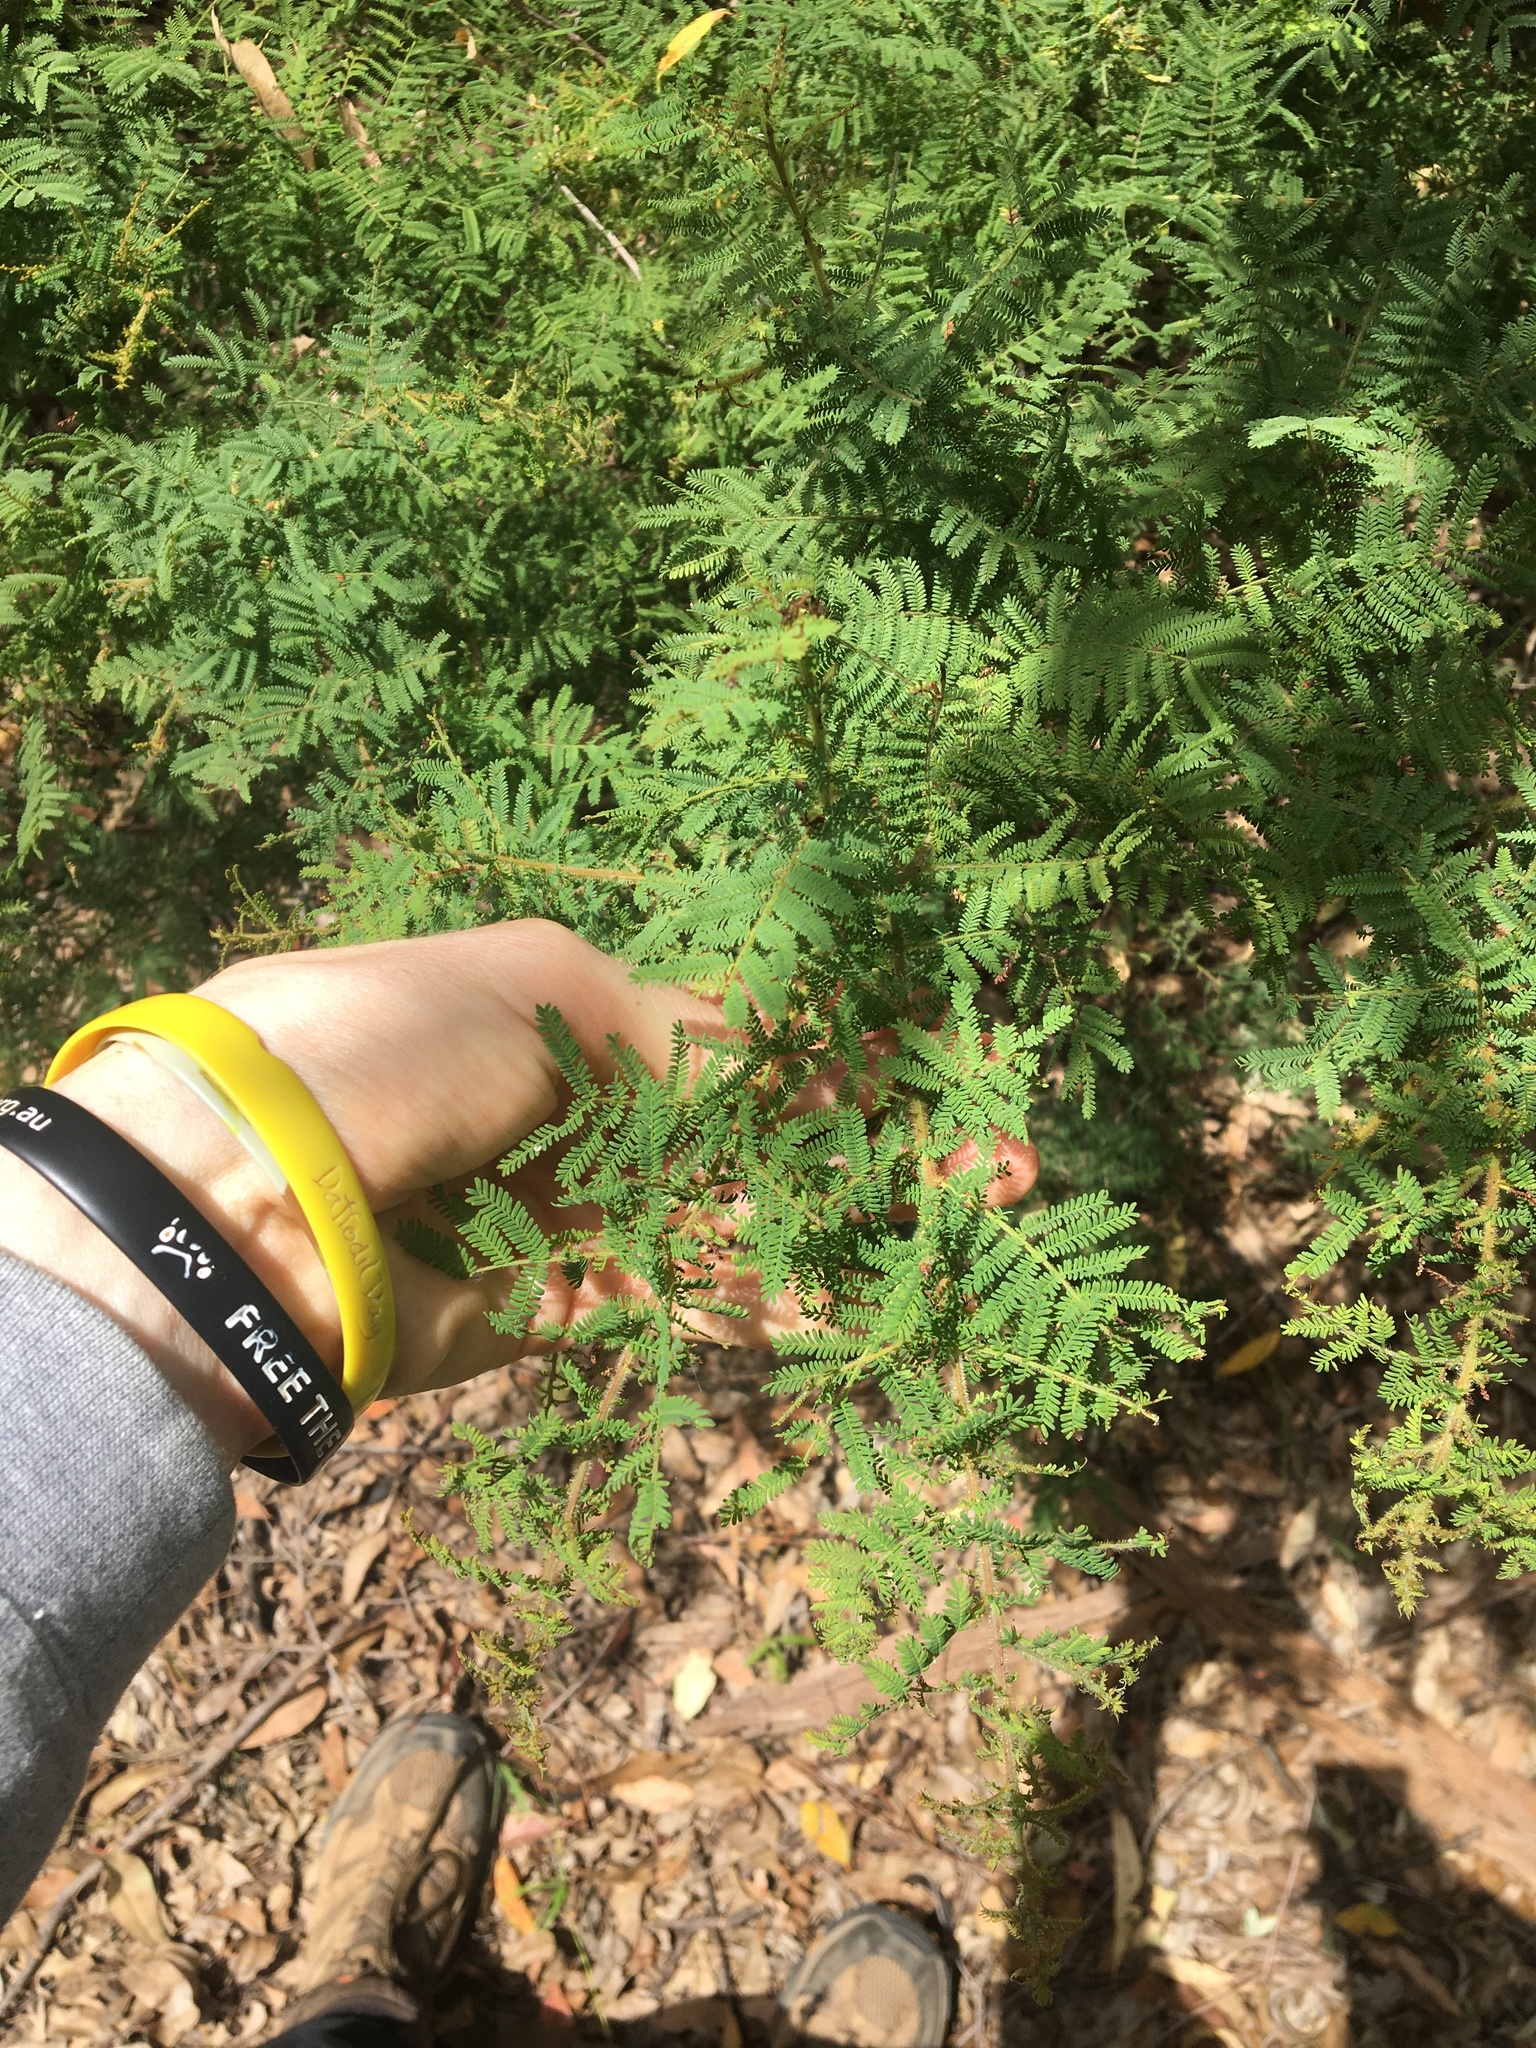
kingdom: Plantae
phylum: Tracheophyta
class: Magnoliopsida
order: Fabales
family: Fabaceae
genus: Acacia
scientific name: Acacia pubescens
